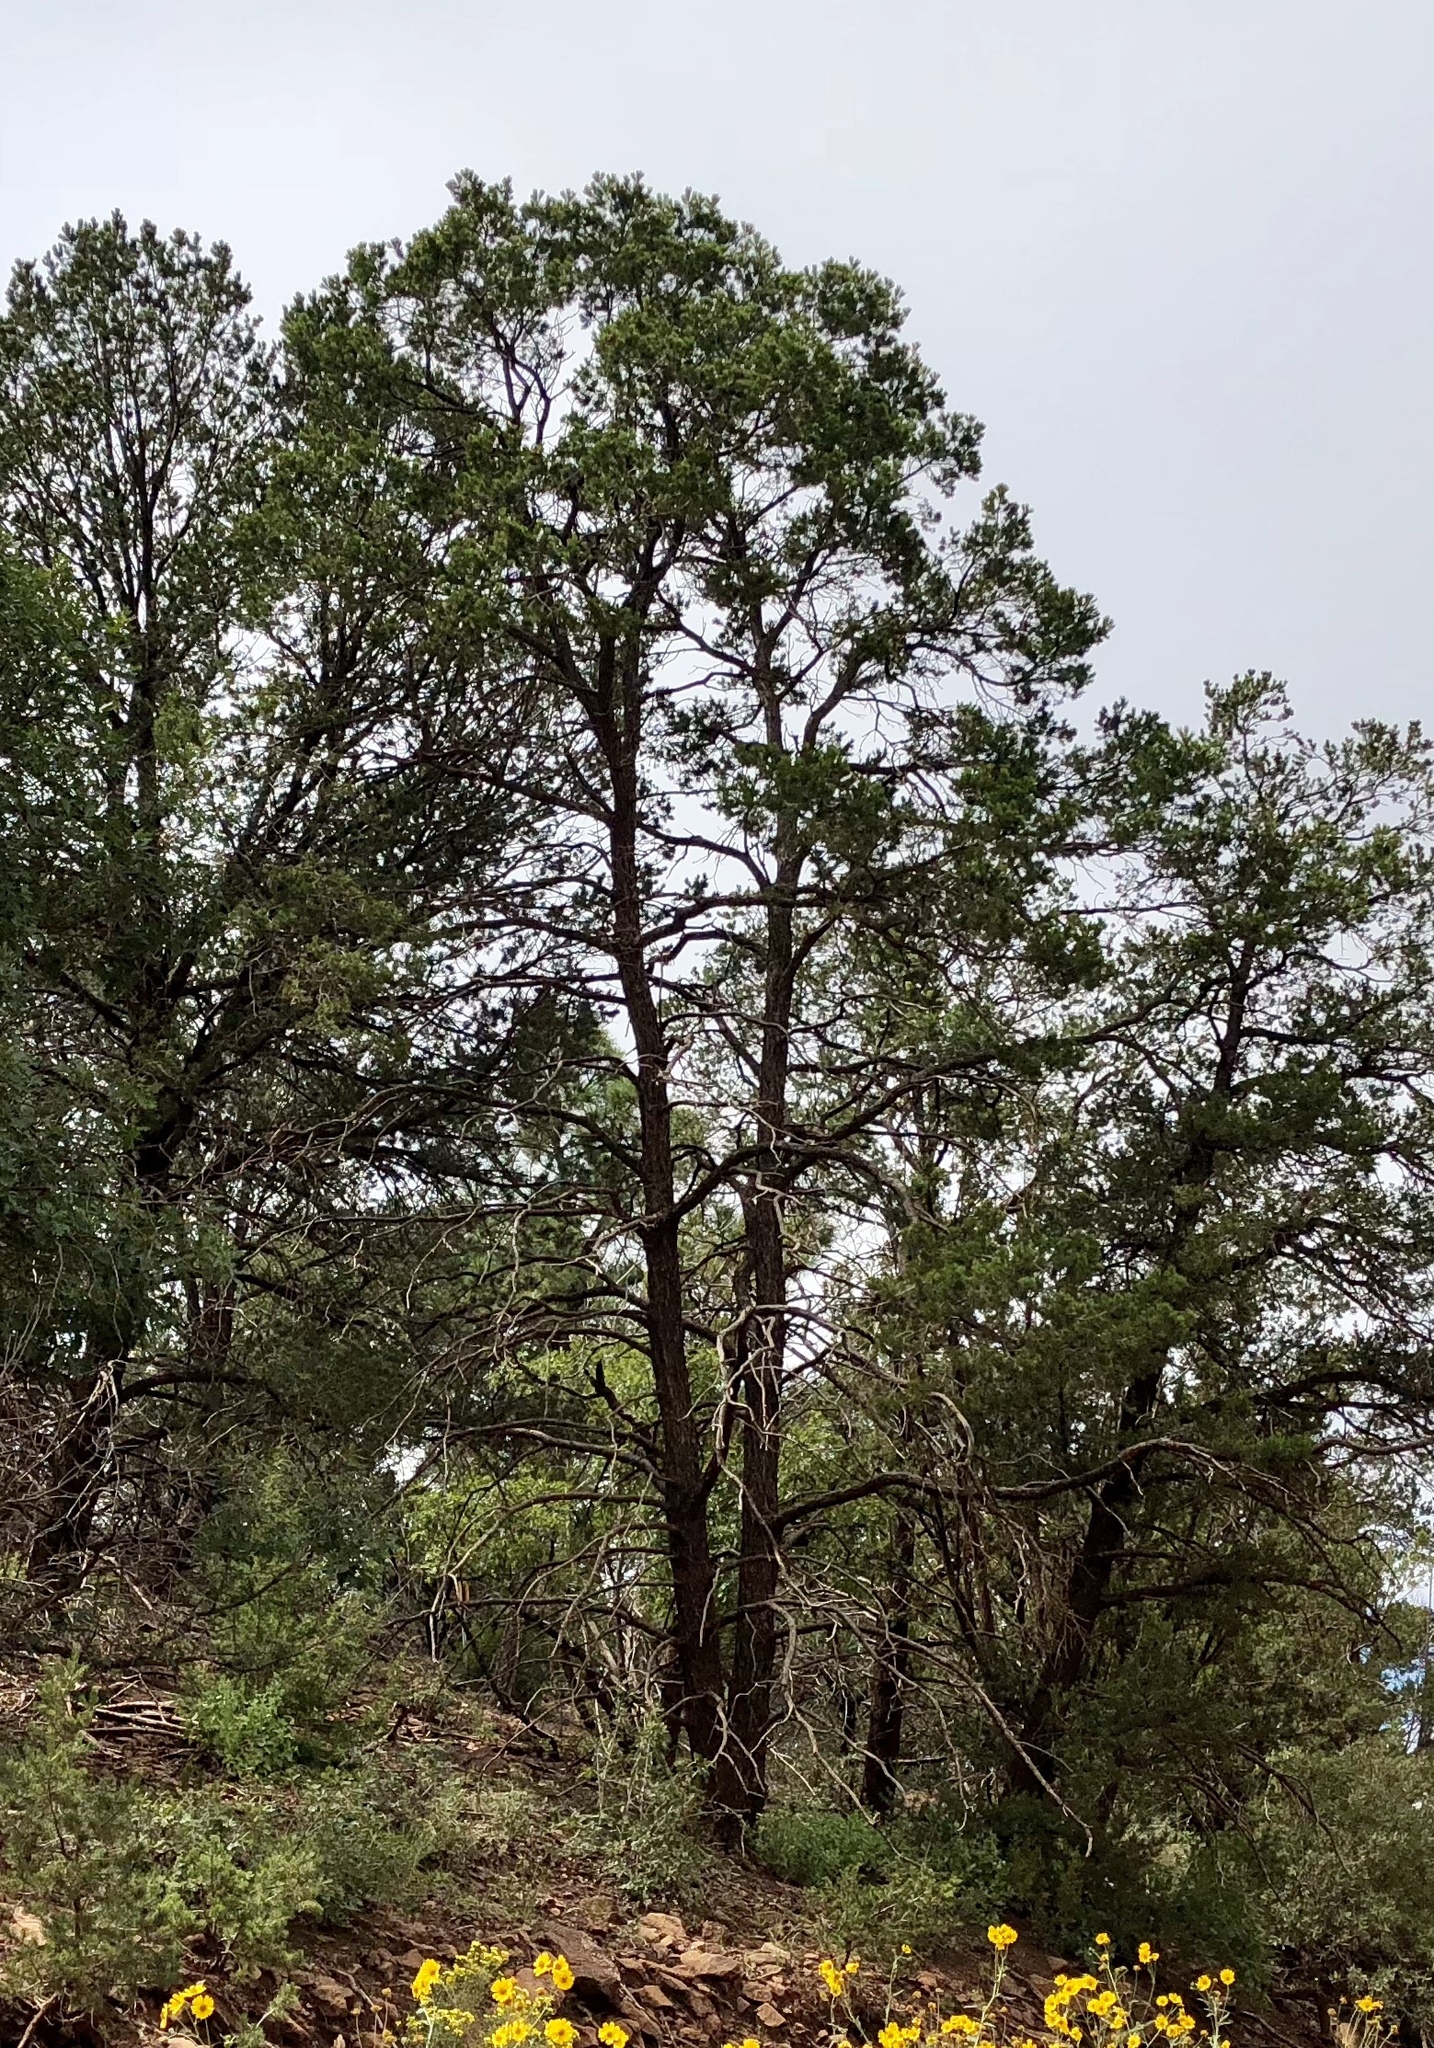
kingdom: Plantae
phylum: Tracheophyta
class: Pinopsida
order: Pinales
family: Pinaceae
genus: Pinus
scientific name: Pinus edulis
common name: Colorado pinyon
